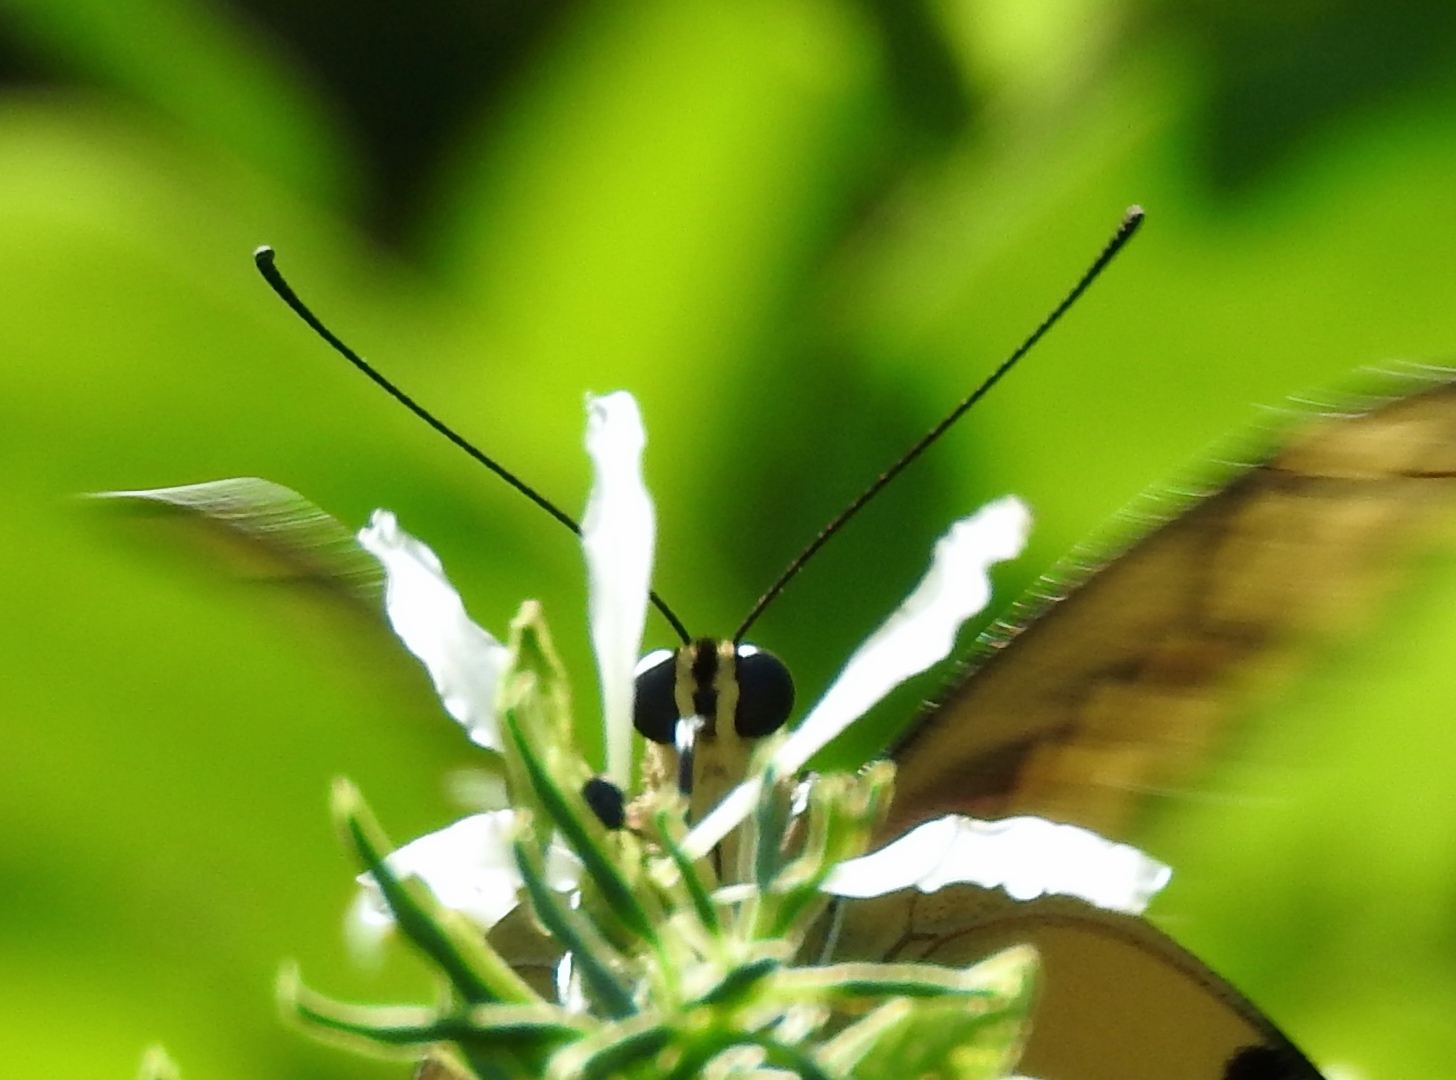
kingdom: Animalia
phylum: Arthropoda
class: Insecta
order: Lepidoptera
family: Papilionidae
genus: Papilio
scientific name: Papilio rumiko
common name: Western giant swallowtail
